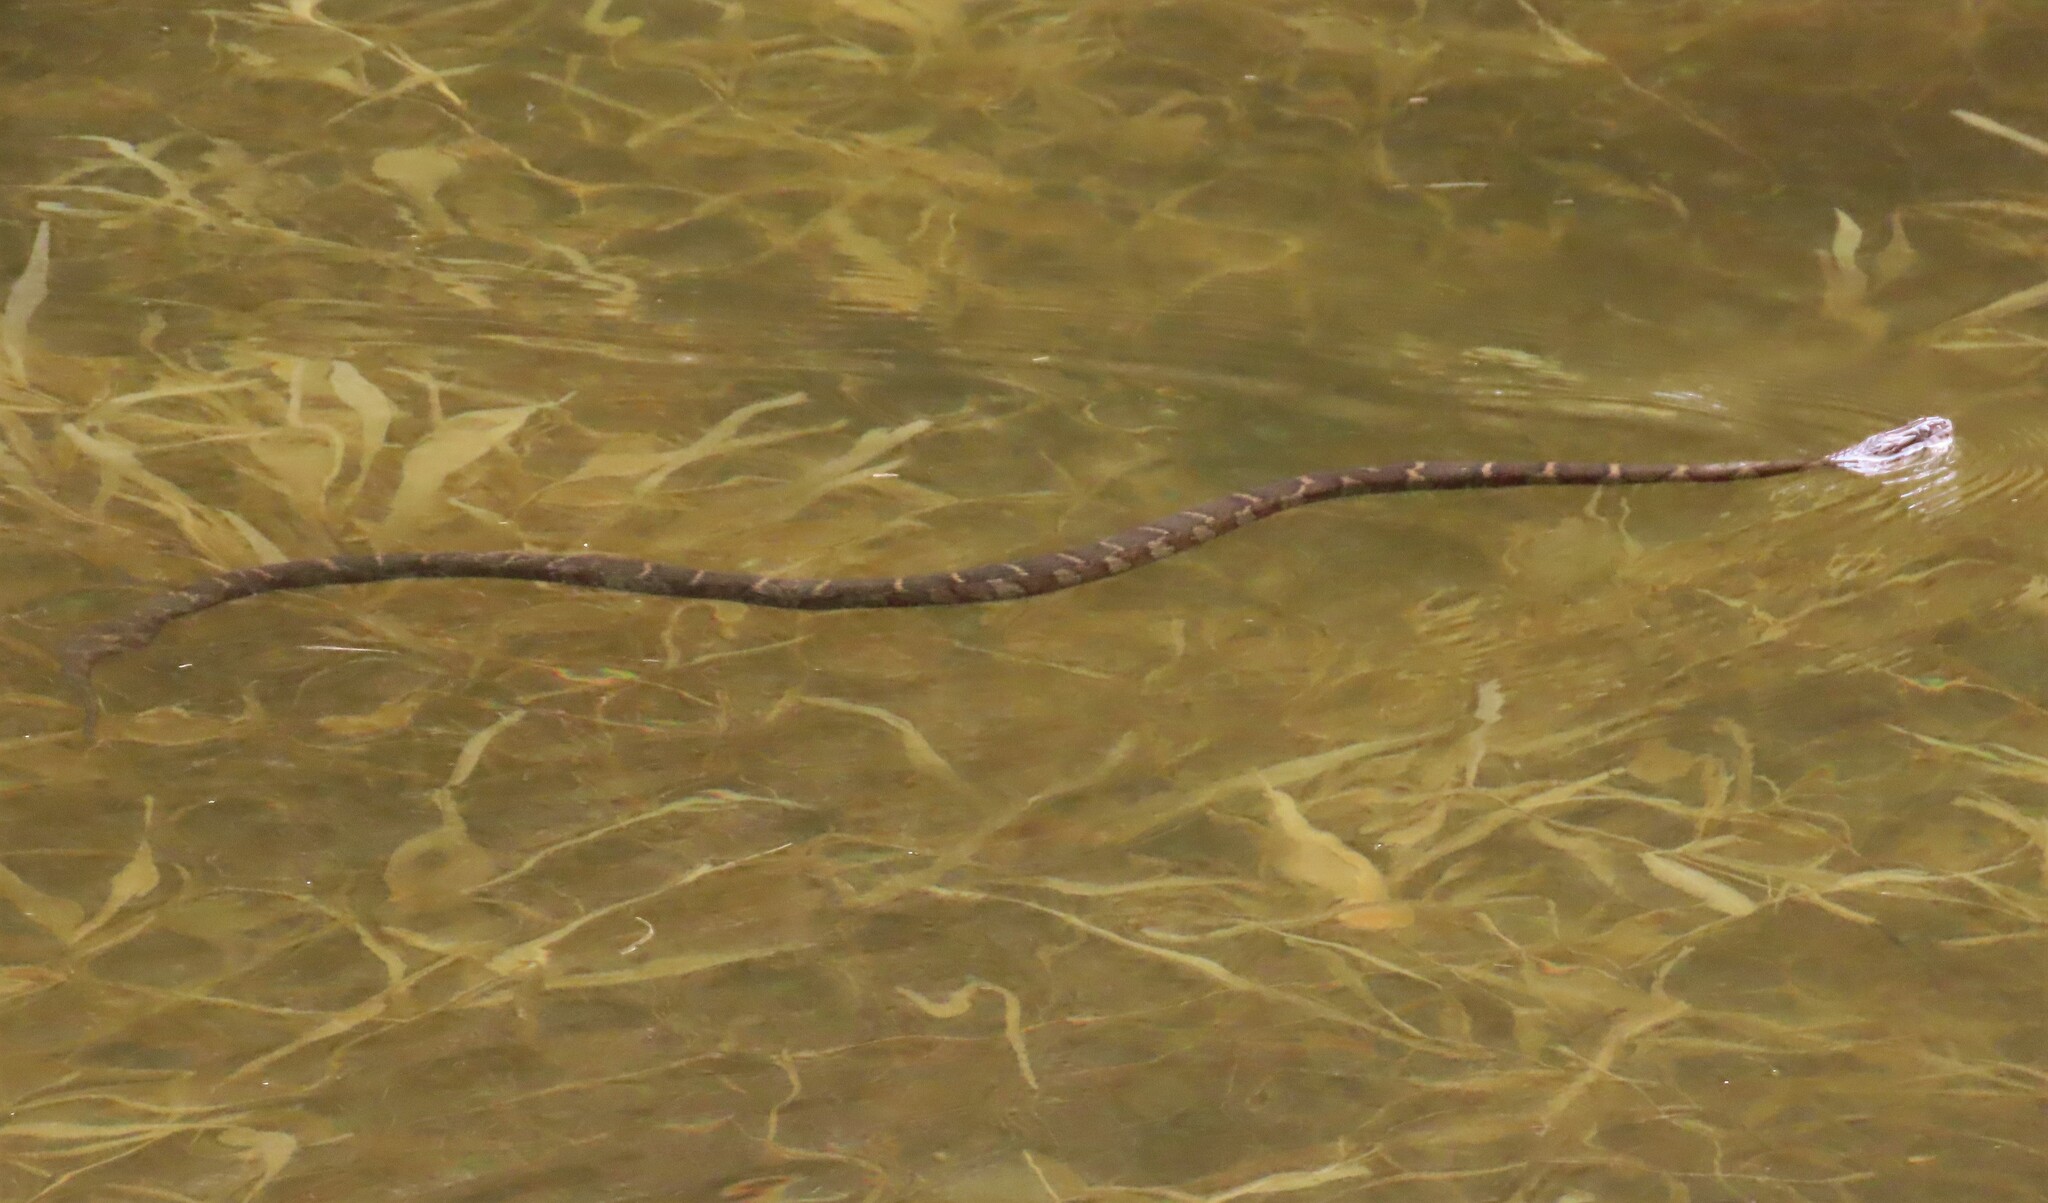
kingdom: Animalia
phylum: Chordata
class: Squamata
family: Colubridae
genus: Nerodia
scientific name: Nerodia sipedon
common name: Northern water snake
